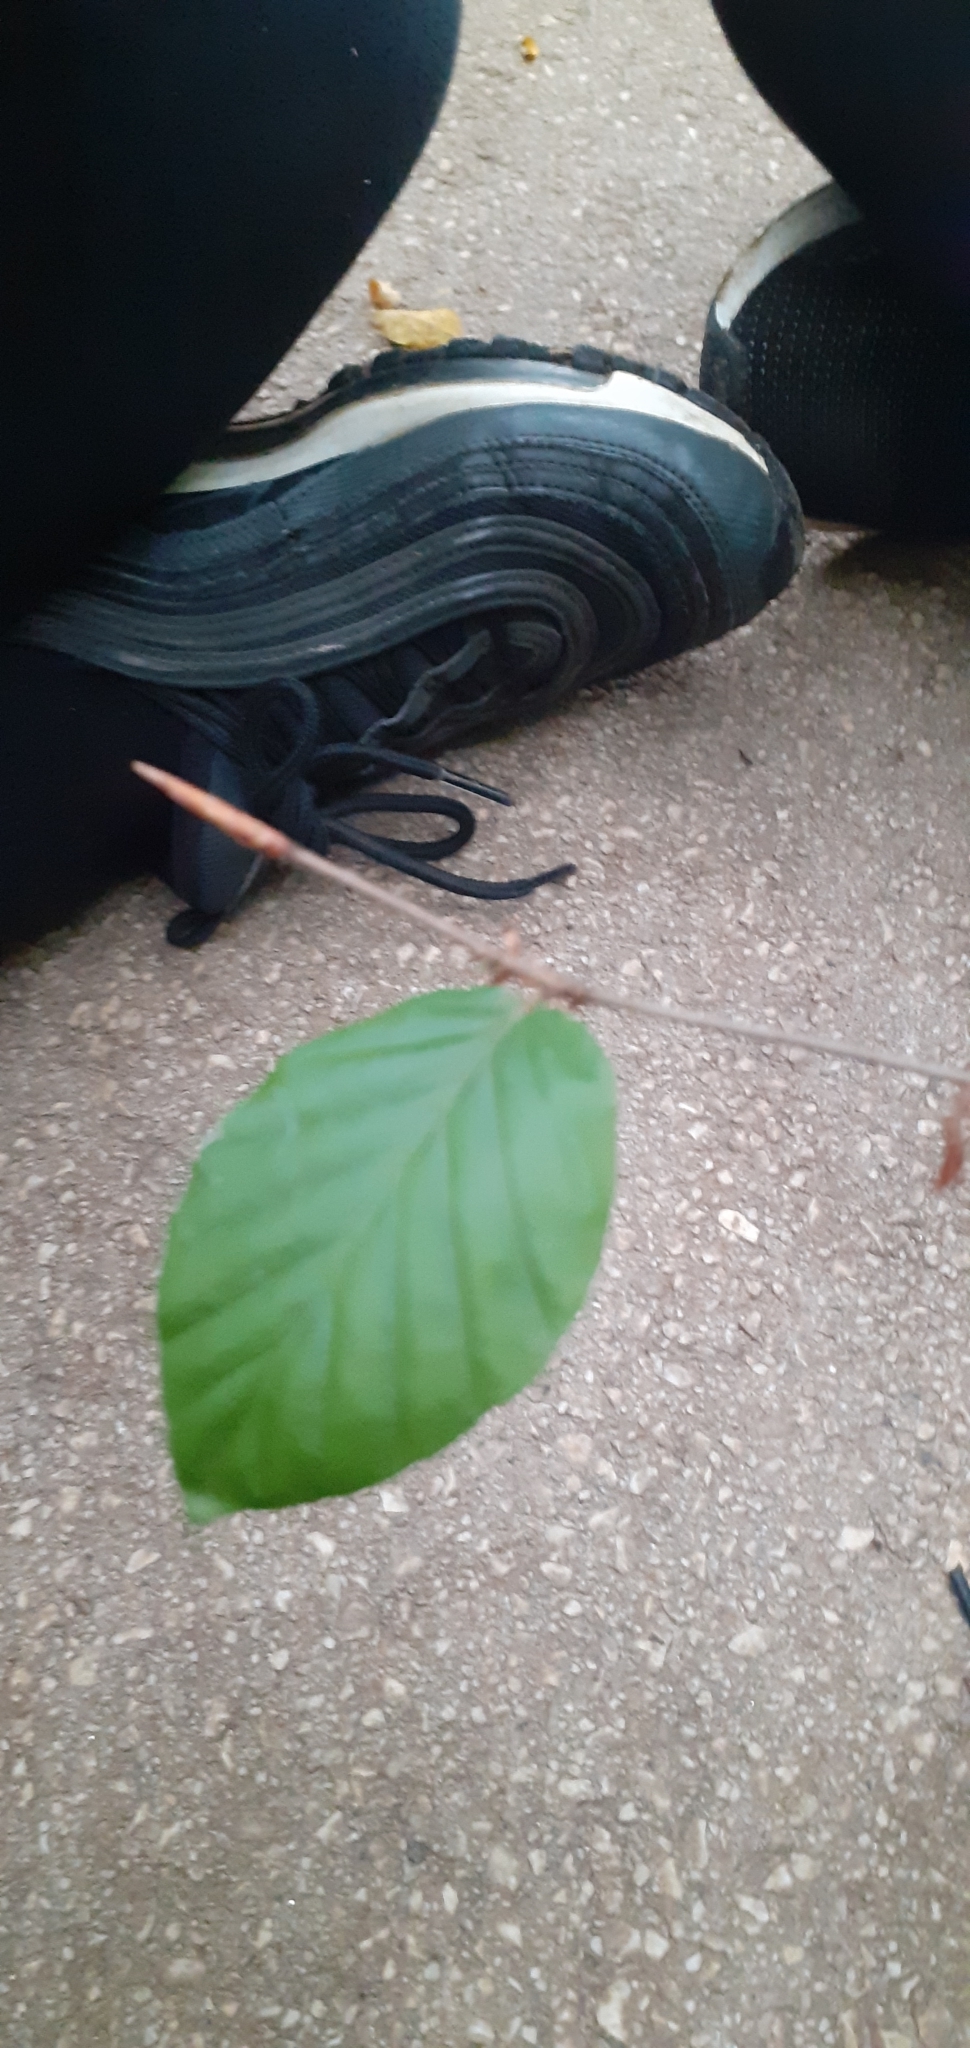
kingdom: Plantae
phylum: Tracheophyta
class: Magnoliopsida
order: Fagales
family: Fagaceae
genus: Fagus
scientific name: Fagus sylvatica
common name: Beech
